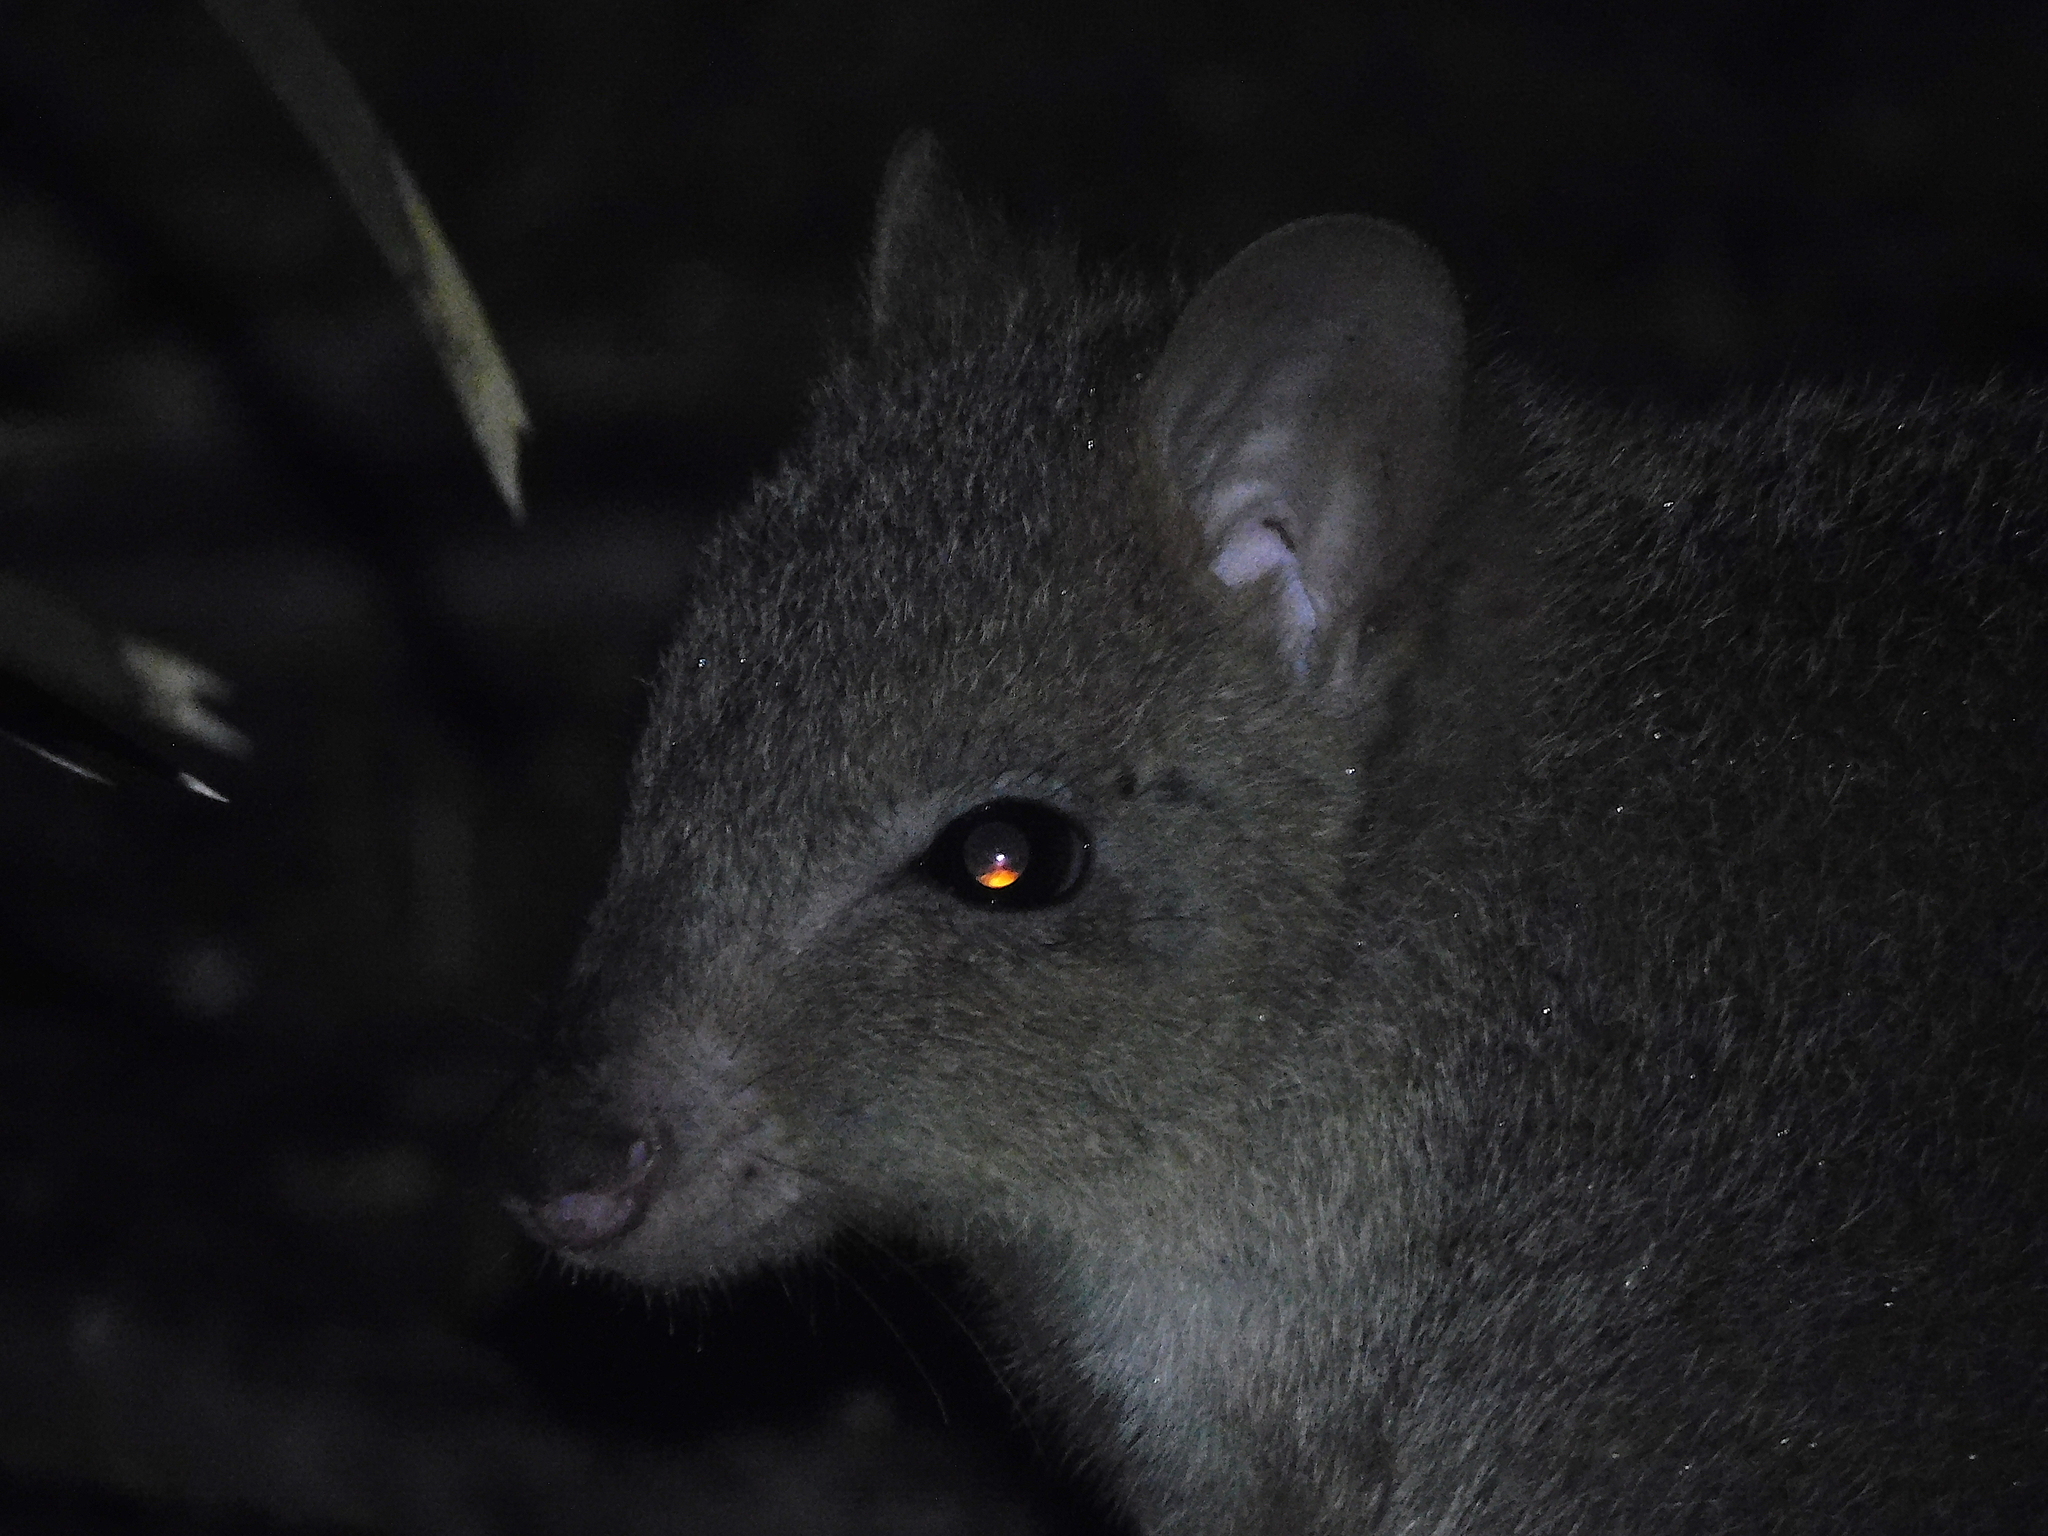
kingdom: Animalia
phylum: Chordata
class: Mammalia
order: Diprotodontia
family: Potoroidae
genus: Bettongia
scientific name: Bettongia gaimardi
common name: Eastern bettong
